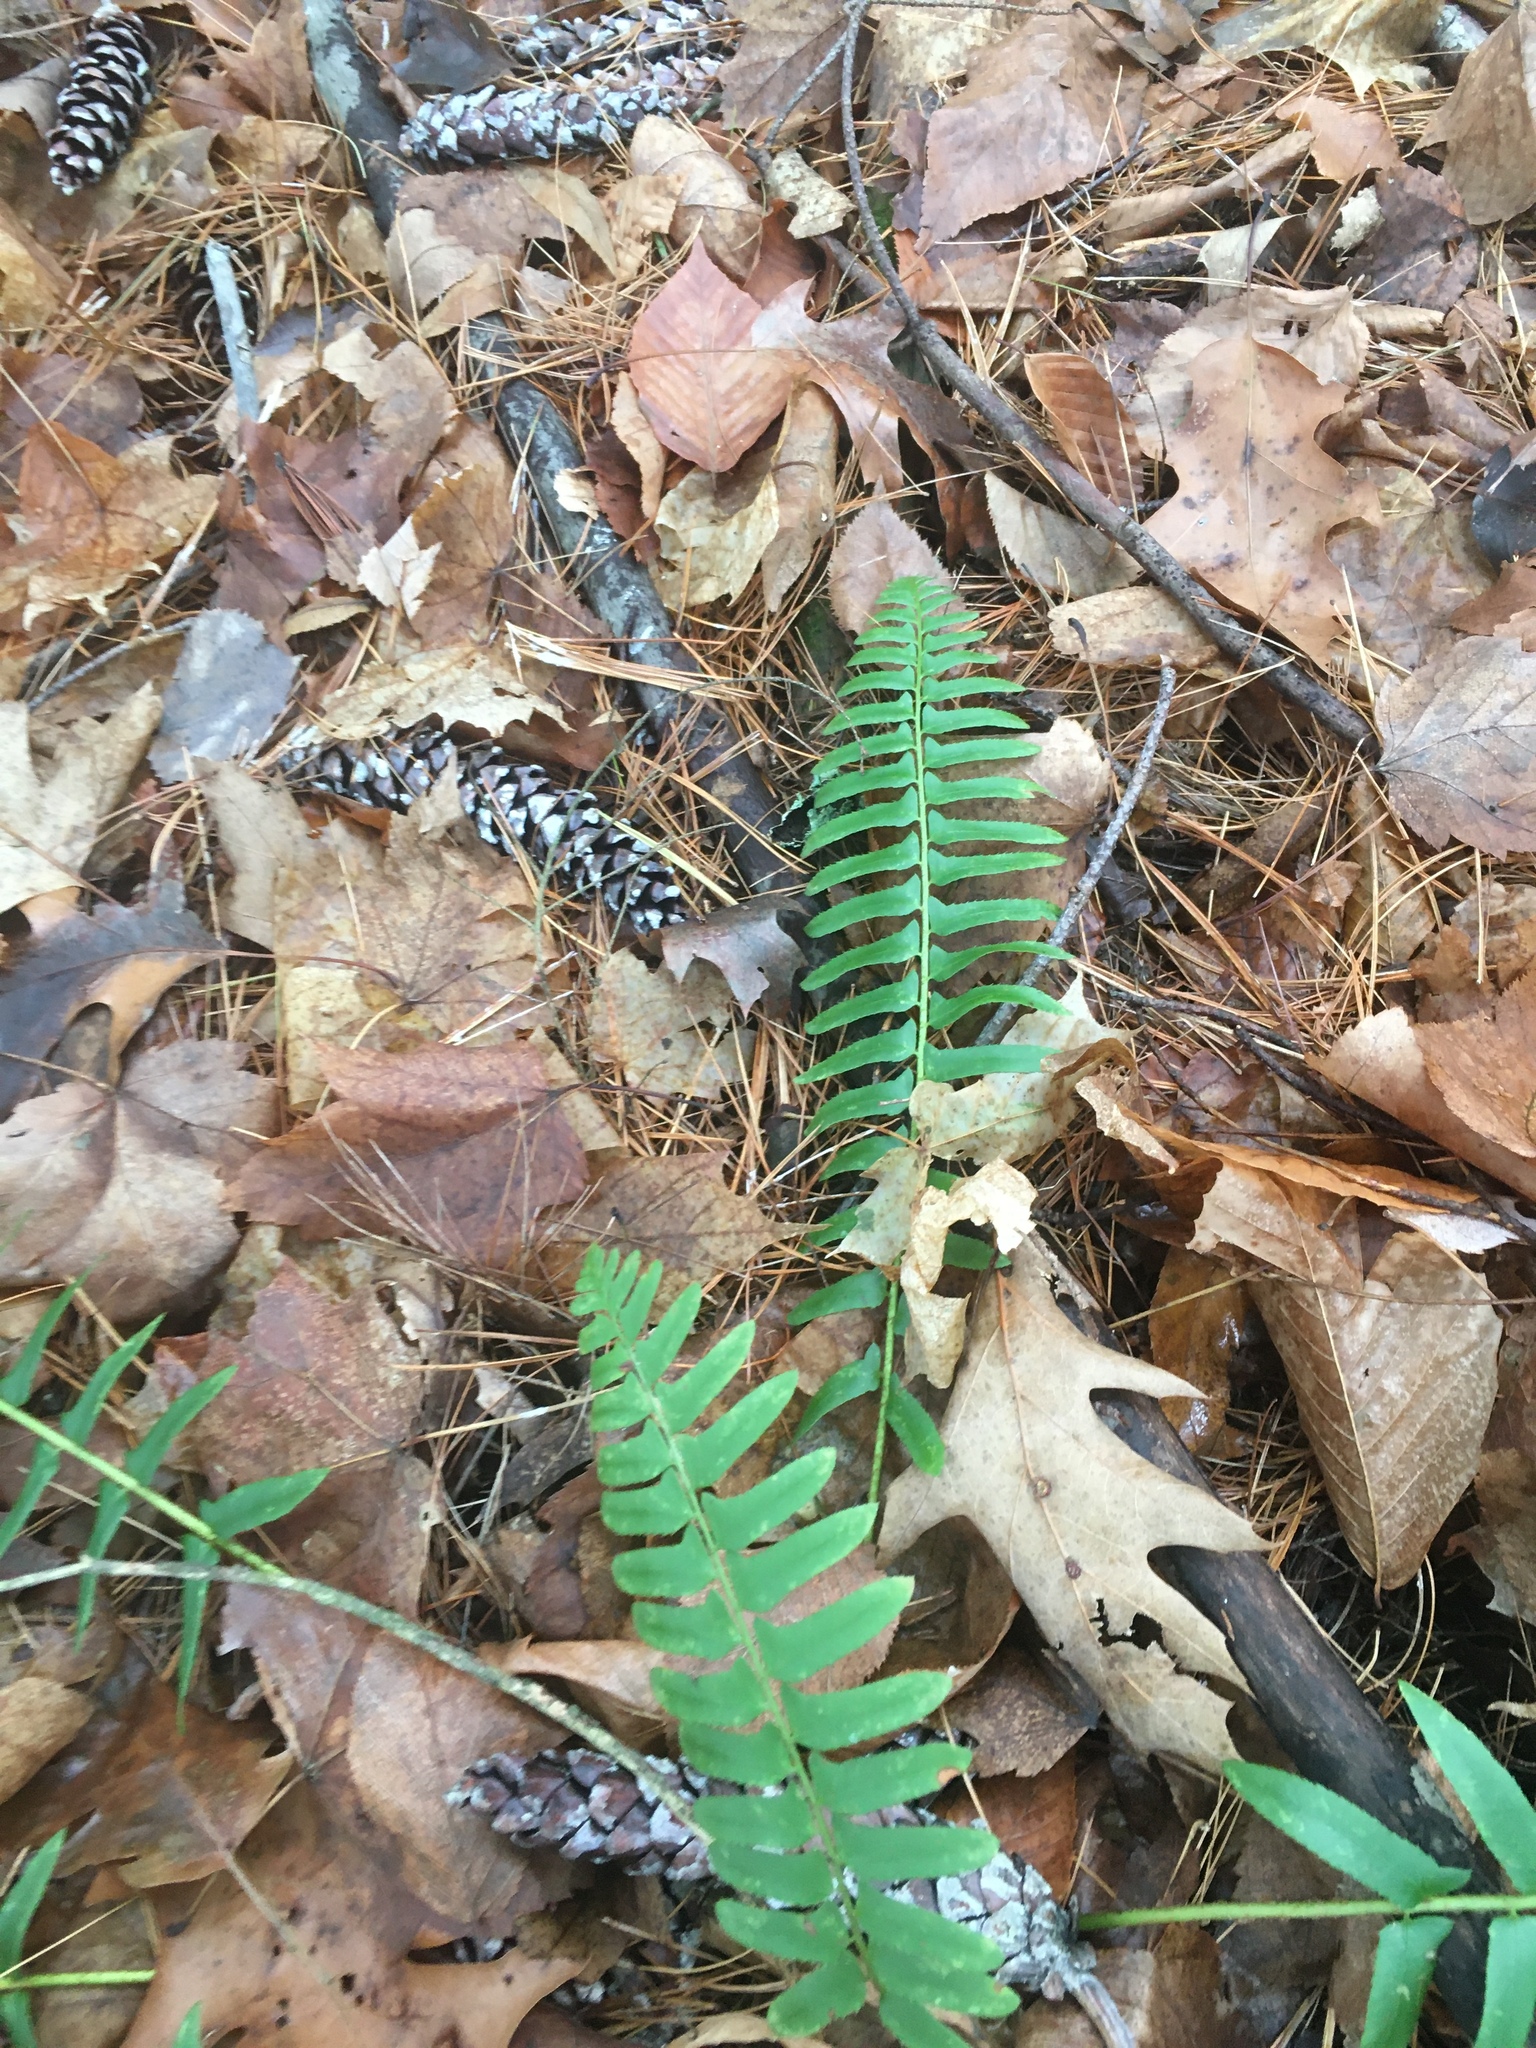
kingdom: Plantae
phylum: Tracheophyta
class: Polypodiopsida
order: Polypodiales
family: Dryopteridaceae
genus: Polystichum
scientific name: Polystichum acrostichoides
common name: Christmas fern
